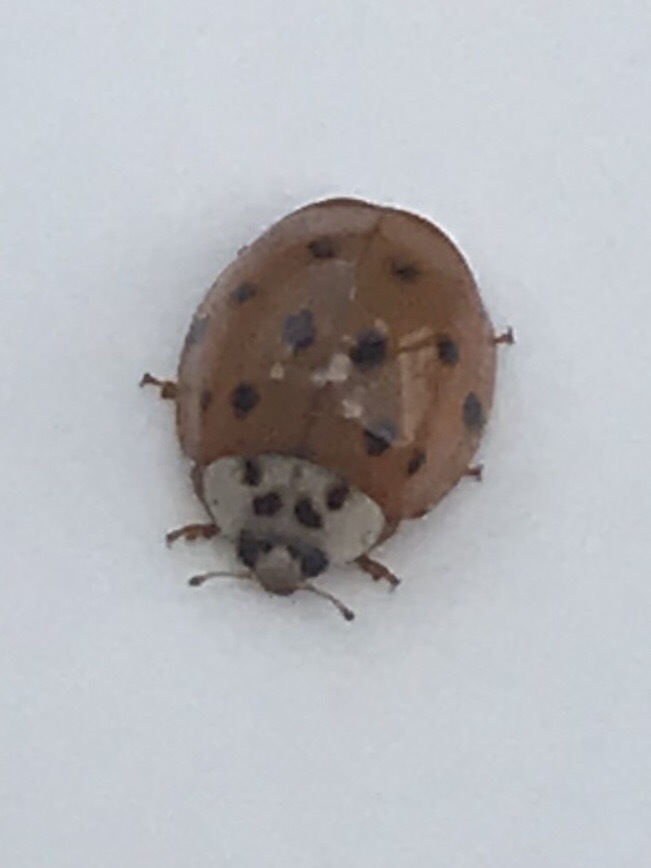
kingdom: Animalia
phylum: Arthropoda
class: Insecta
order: Coleoptera
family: Coccinellidae
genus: Harmonia
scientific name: Harmonia axyridis
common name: Harlequin ladybird
